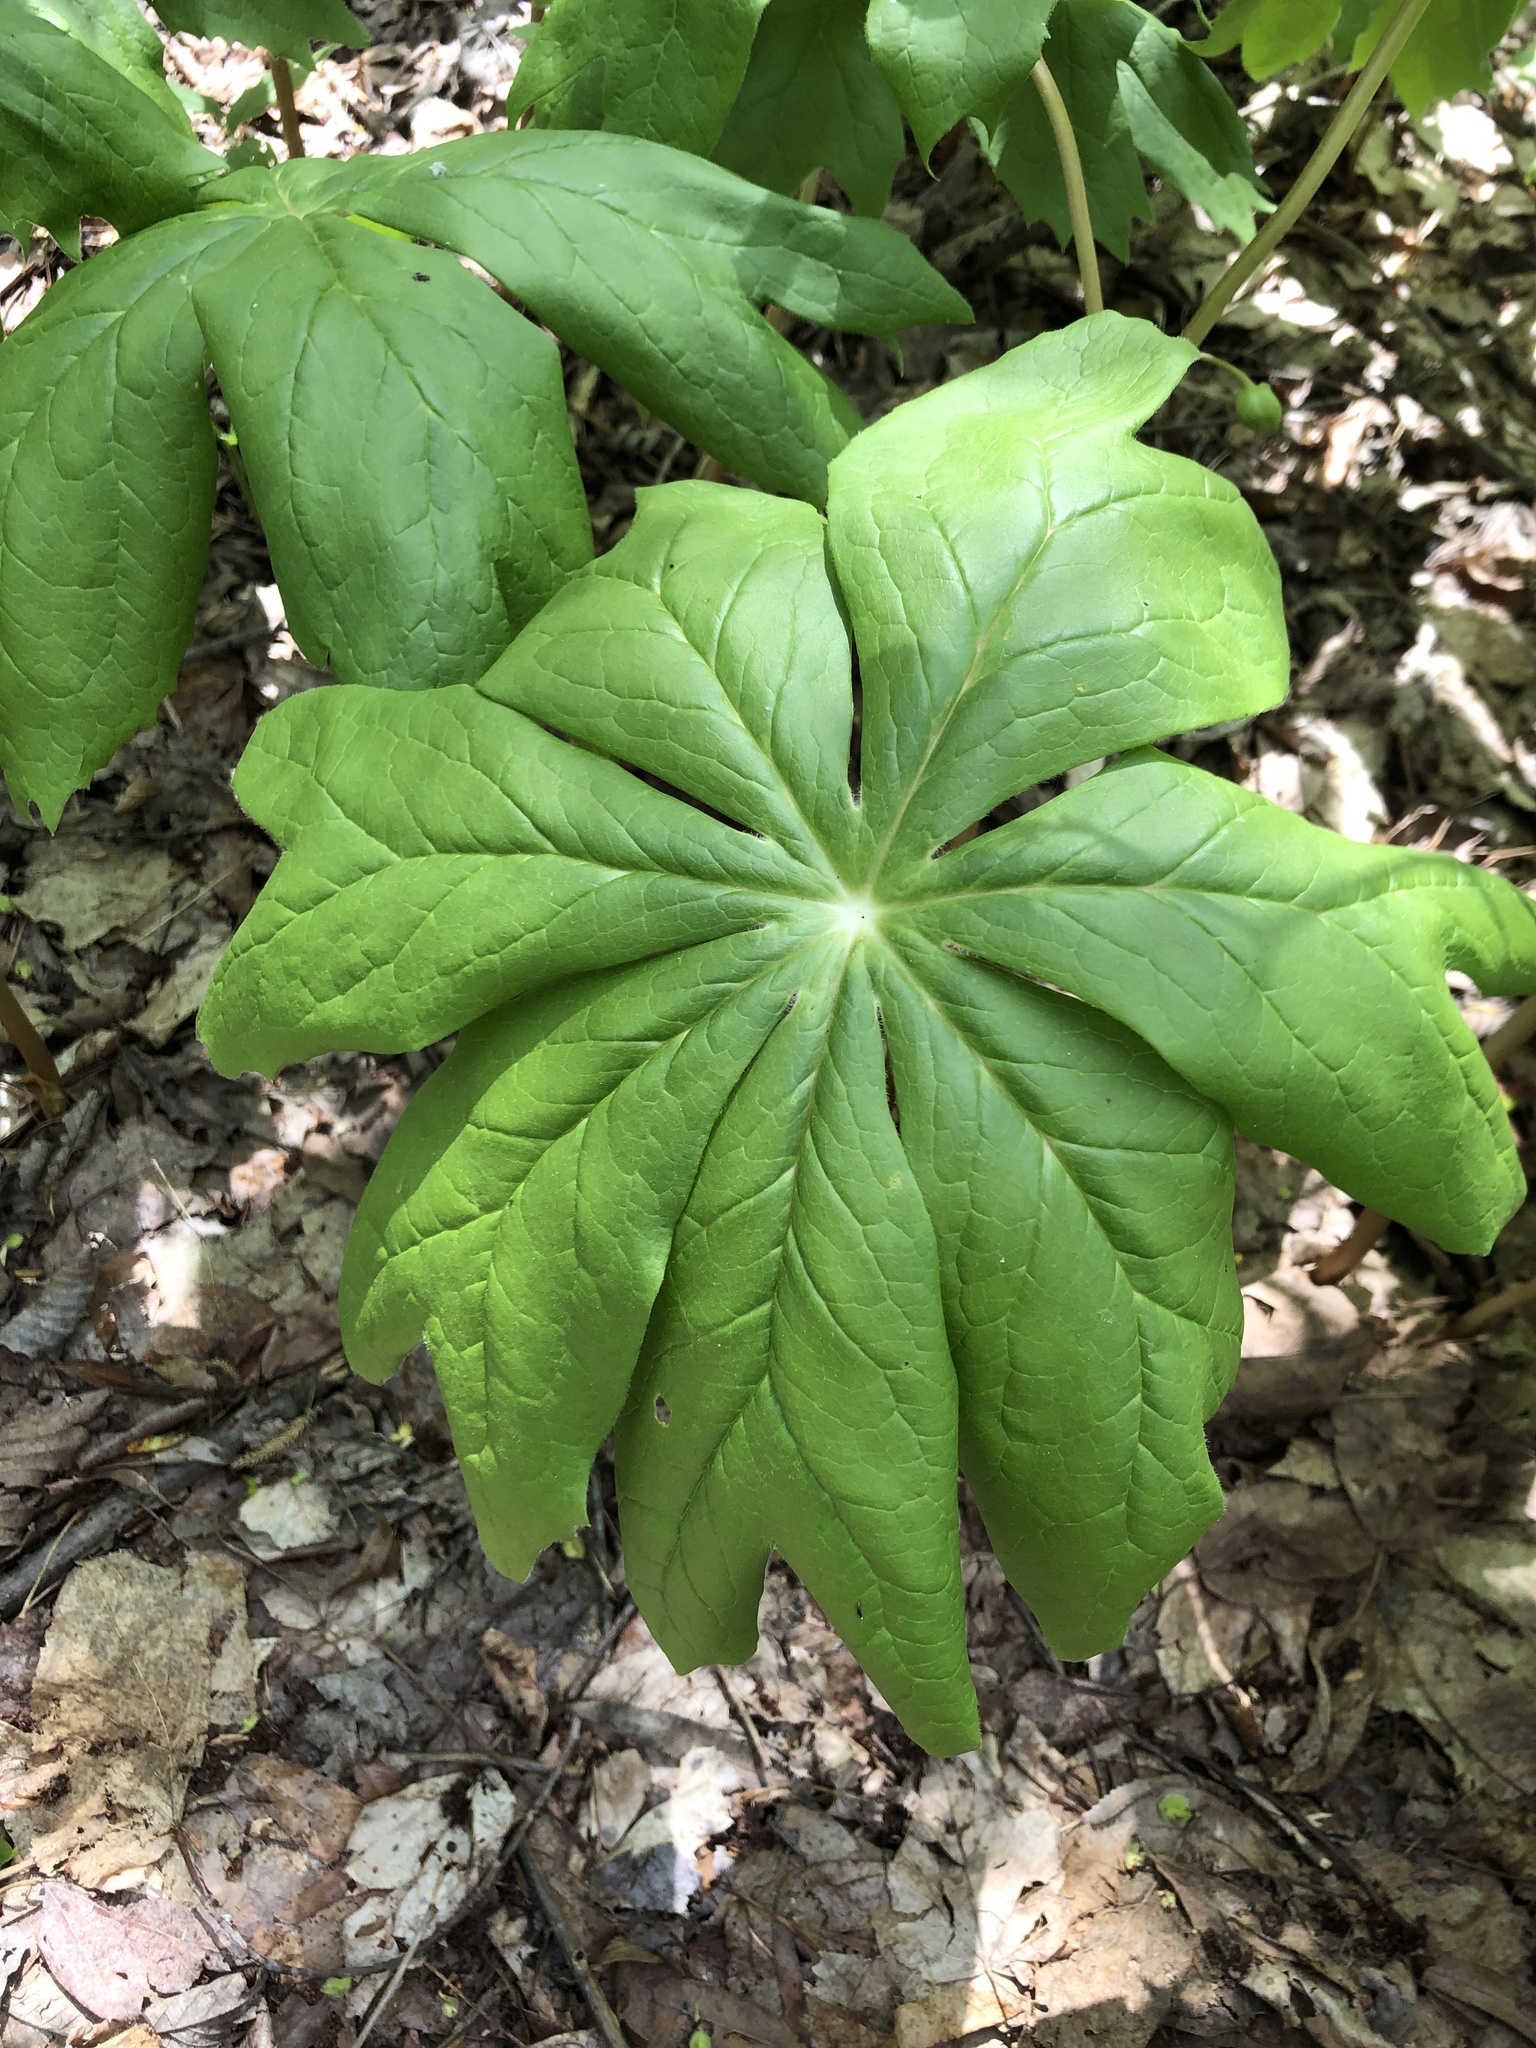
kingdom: Plantae
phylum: Tracheophyta
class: Magnoliopsida
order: Ranunculales
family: Berberidaceae
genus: Podophyllum
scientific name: Podophyllum peltatum
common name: Wild mandrake
